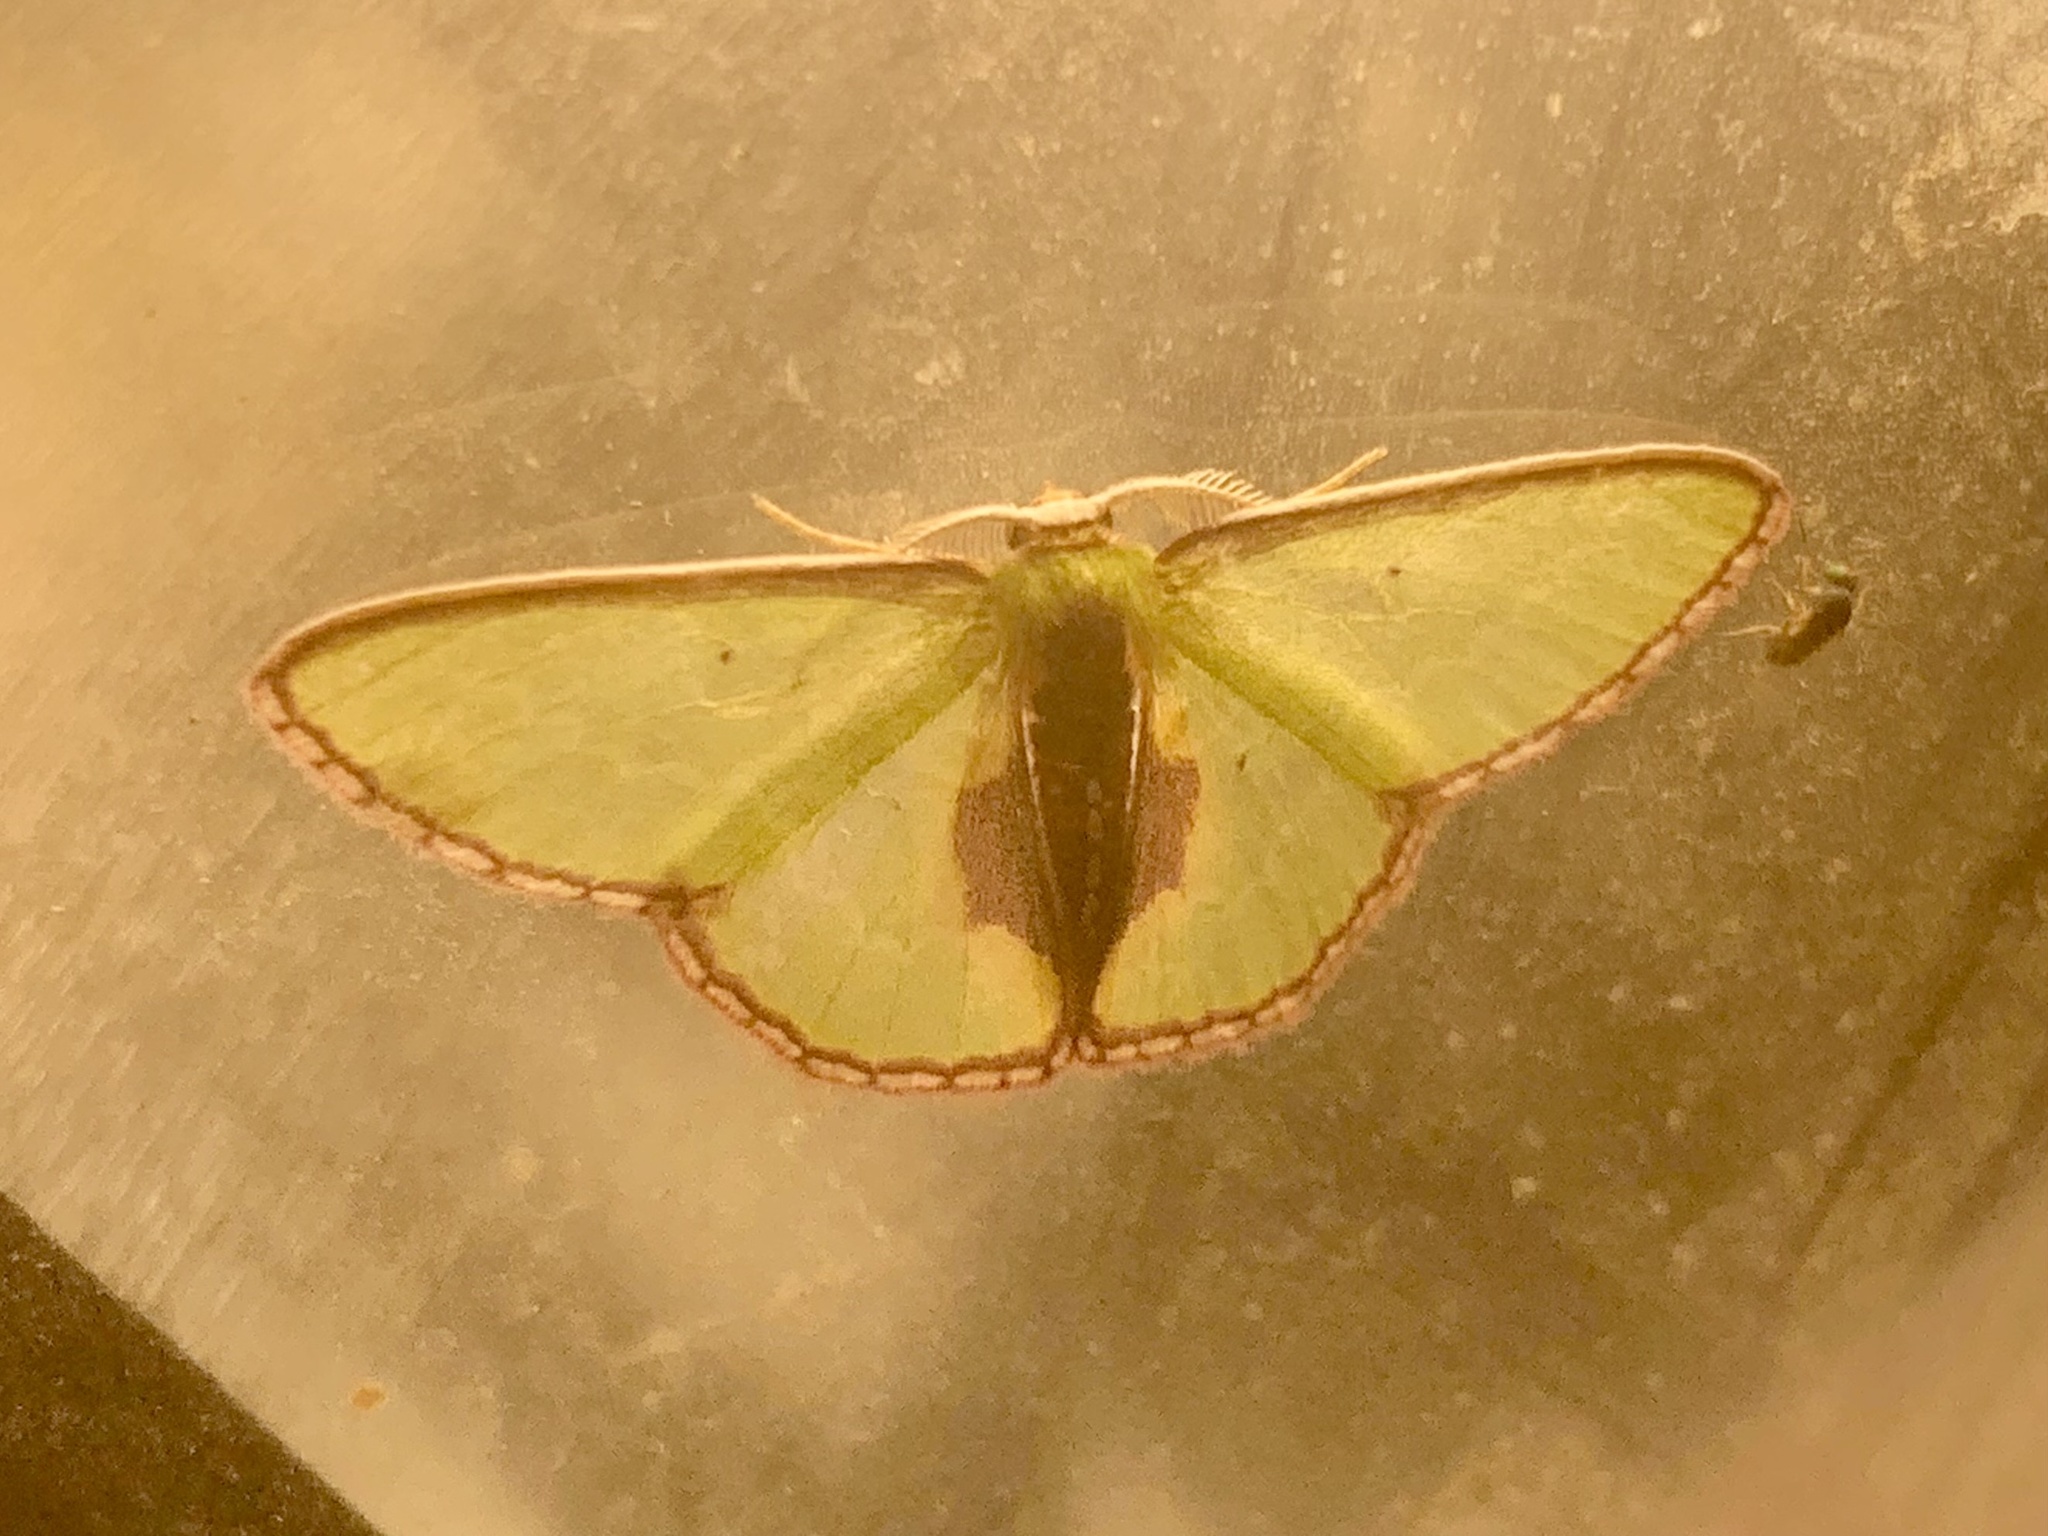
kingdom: Animalia
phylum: Arthropoda
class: Insecta
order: Lepidoptera
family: Geometridae
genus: Synchlora
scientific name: Synchlora astraeoides
